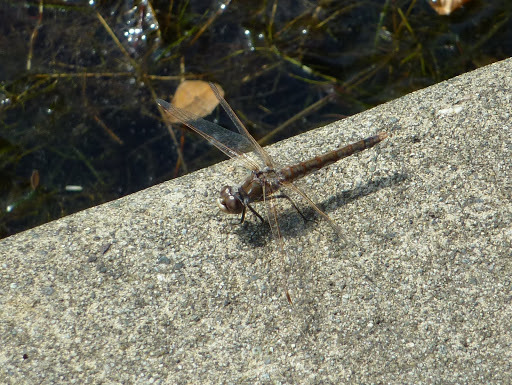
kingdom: Animalia
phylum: Arthropoda
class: Insecta
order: Odonata
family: Libellulidae
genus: Sympetrum
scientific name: Sympetrum corruptum
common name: Variegated meadowhawk
